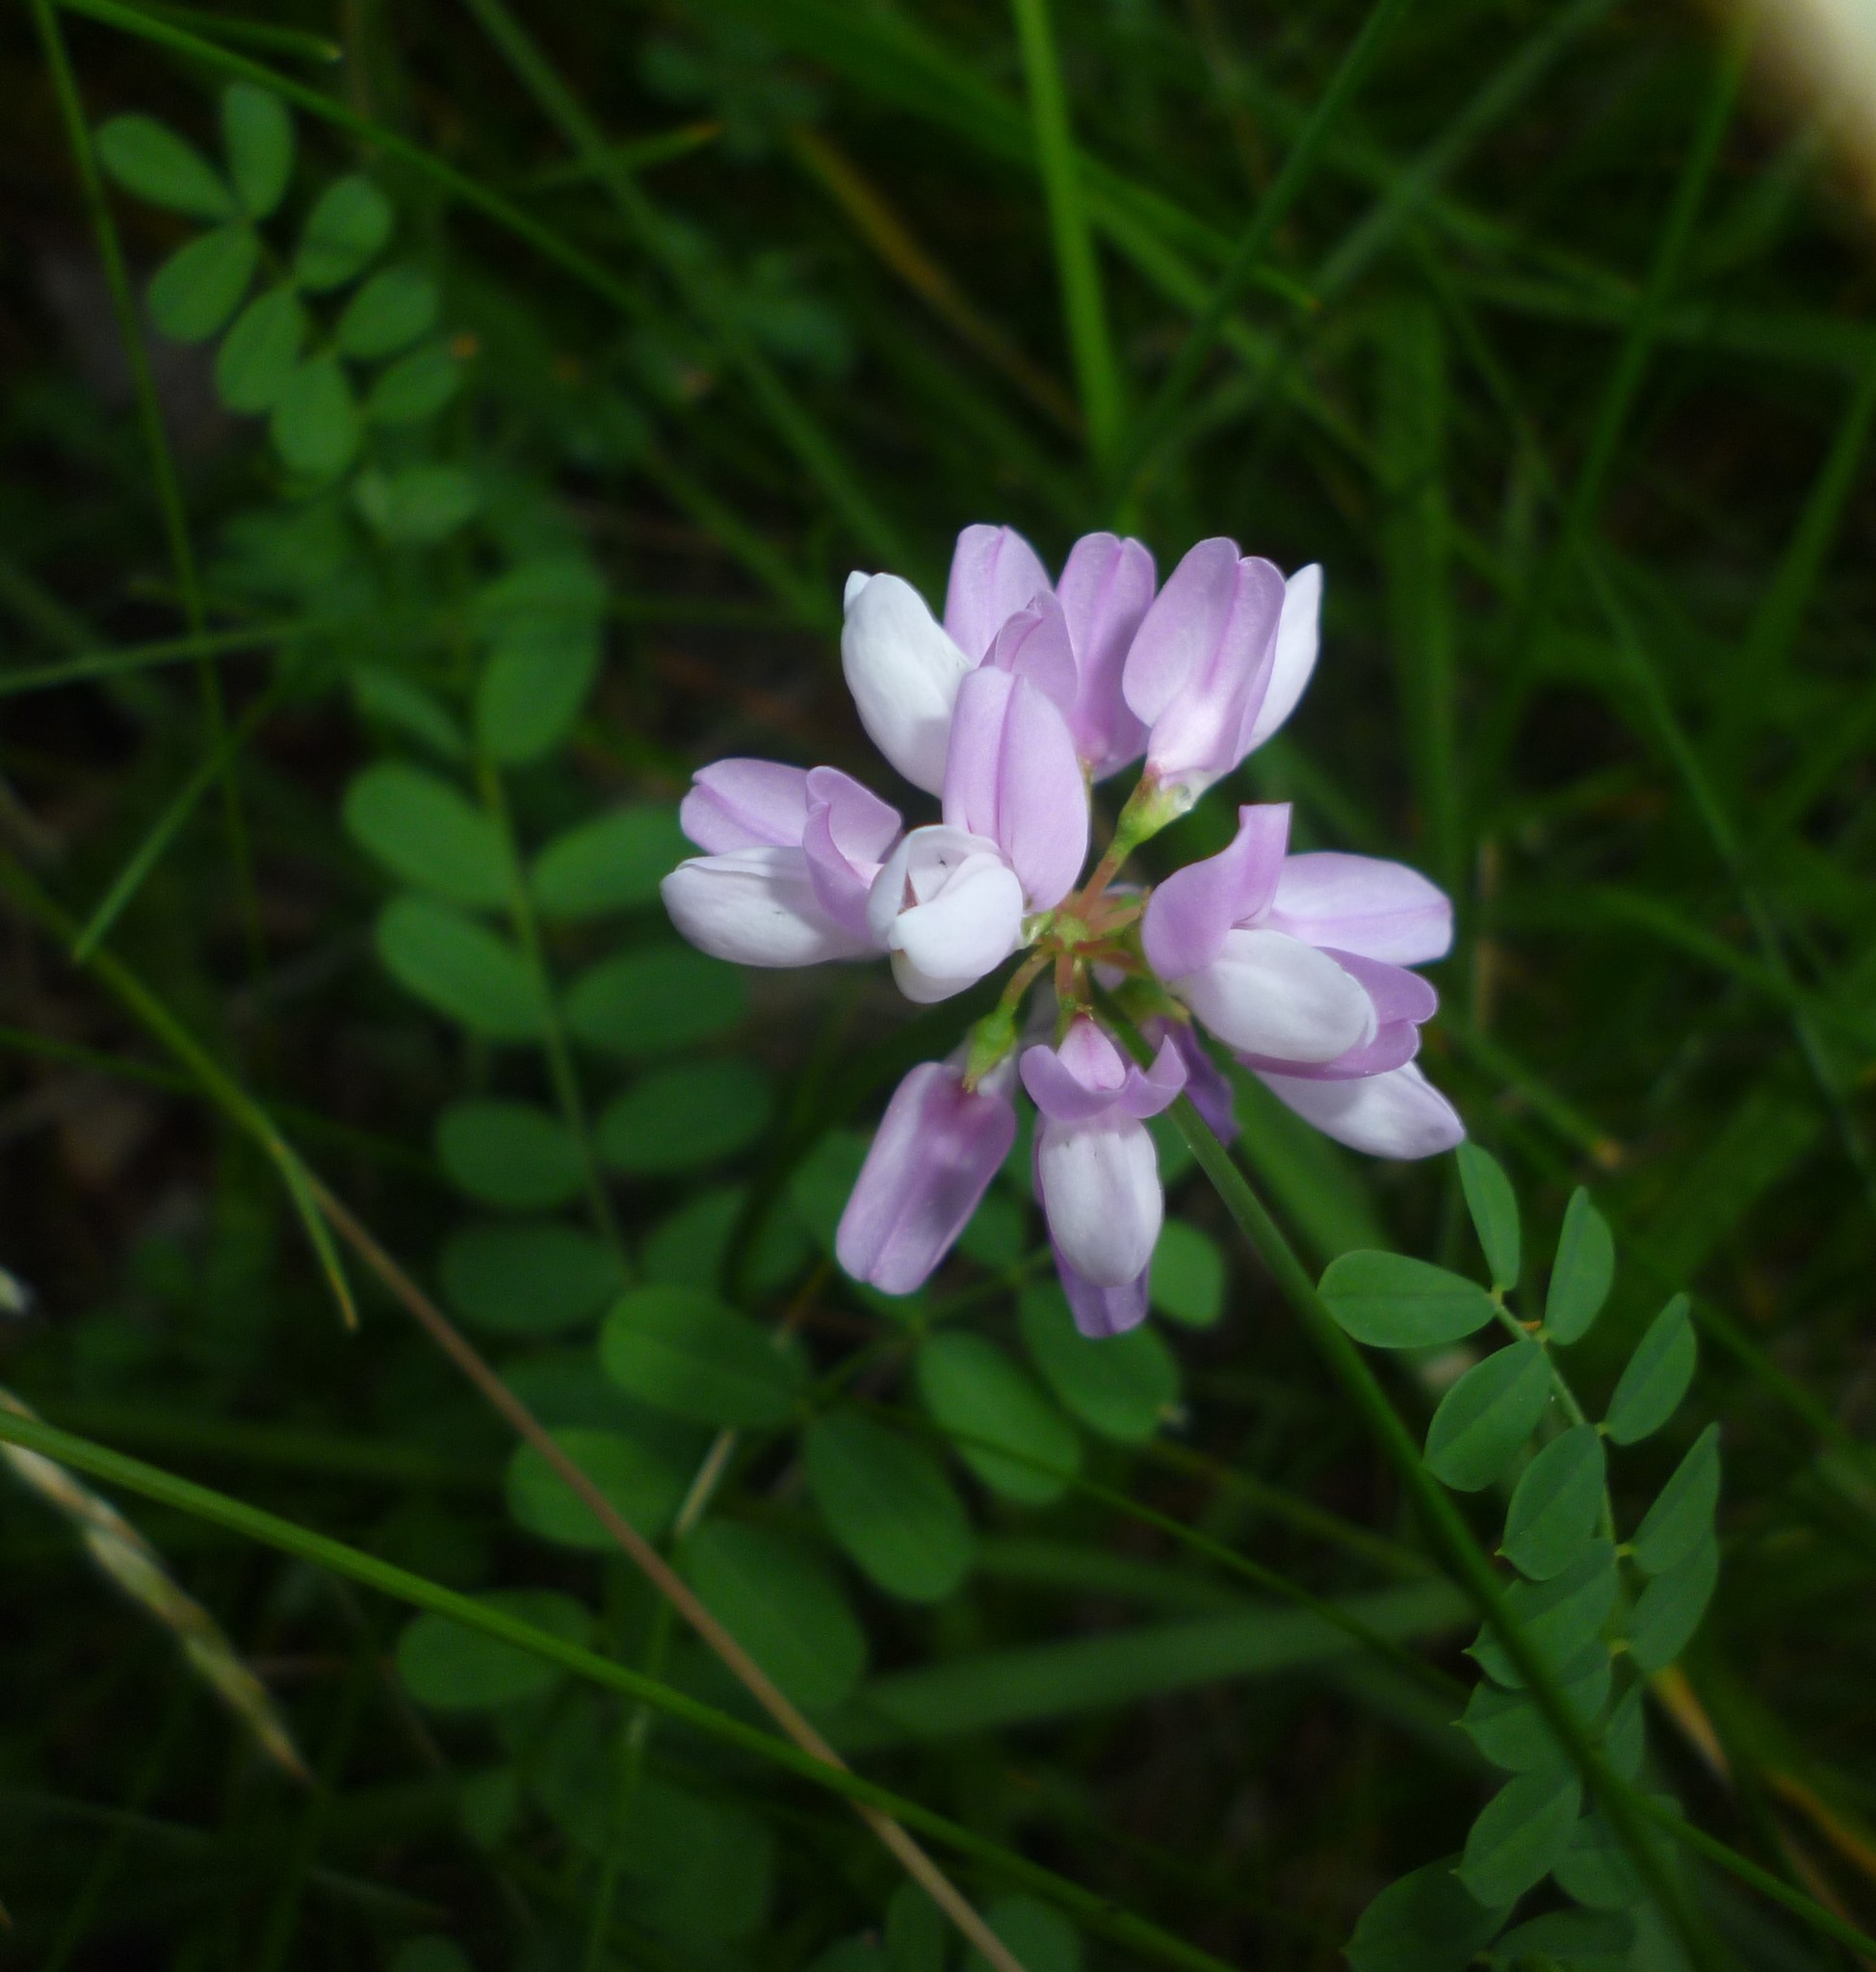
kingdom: Plantae
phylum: Tracheophyta
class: Magnoliopsida
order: Fabales
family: Fabaceae
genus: Coronilla
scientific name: Coronilla varia
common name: Crownvetch
